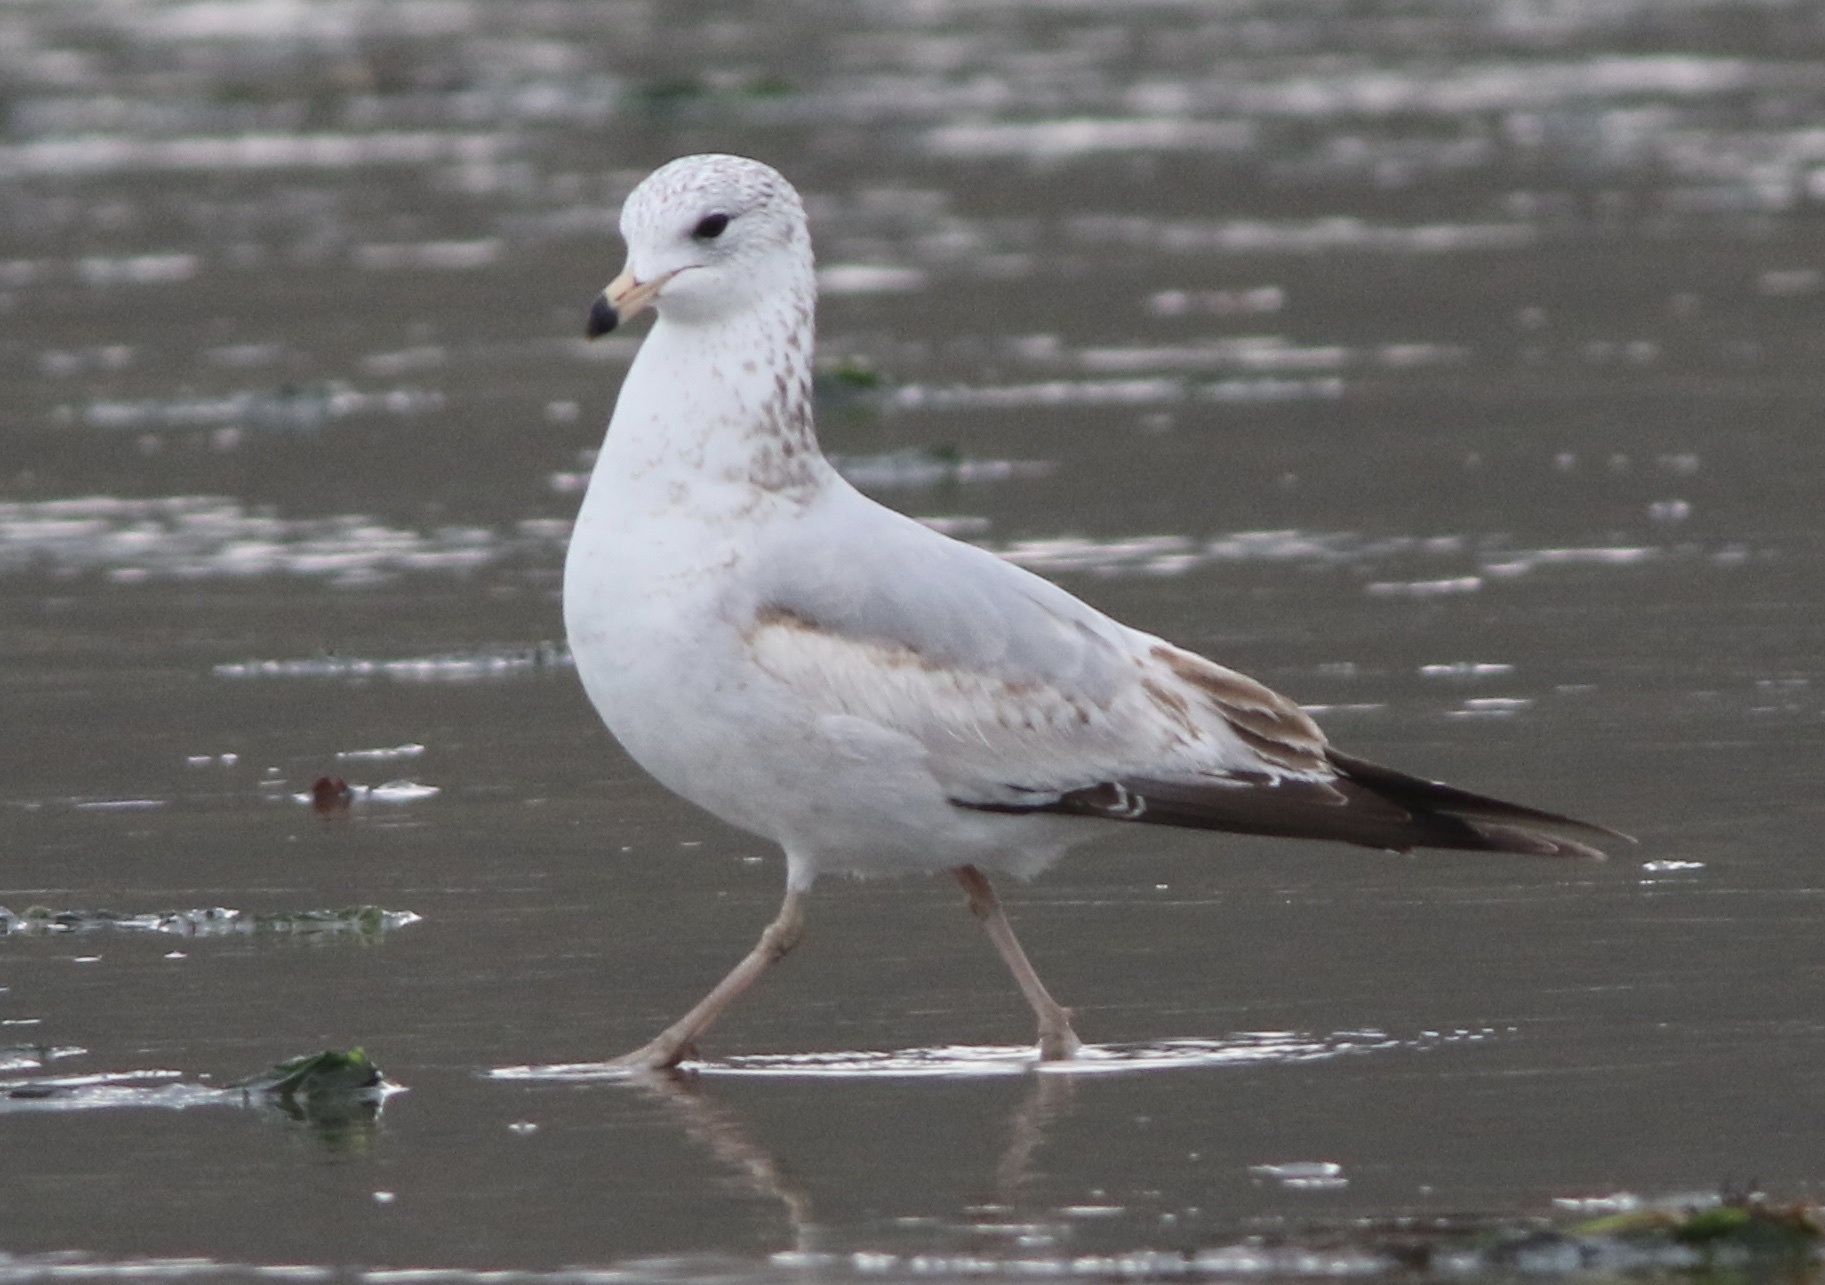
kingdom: Animalia
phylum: Chordata
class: Aves
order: Charadriiformes
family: Laridae
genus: Larus
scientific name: Larus delawarensis
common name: Ring-billed gull
